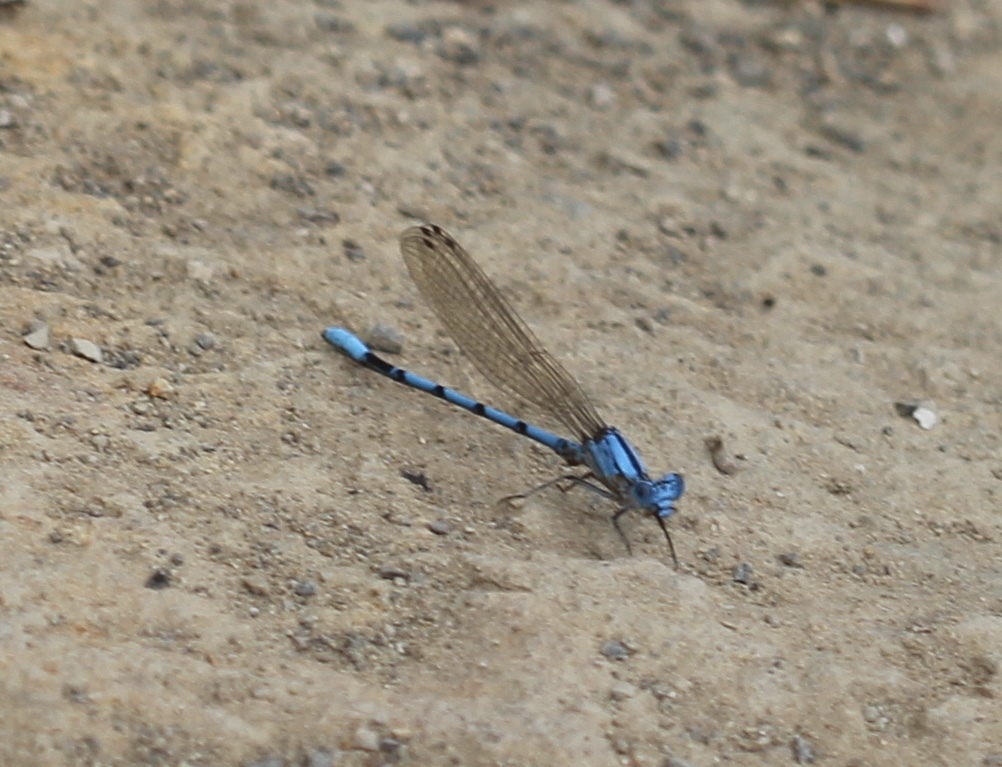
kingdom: Animalia
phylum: Arthropoda
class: Insecta
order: Odonata
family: Coenagrionidae
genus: Argia
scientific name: Argia agrioides
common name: California dancer
